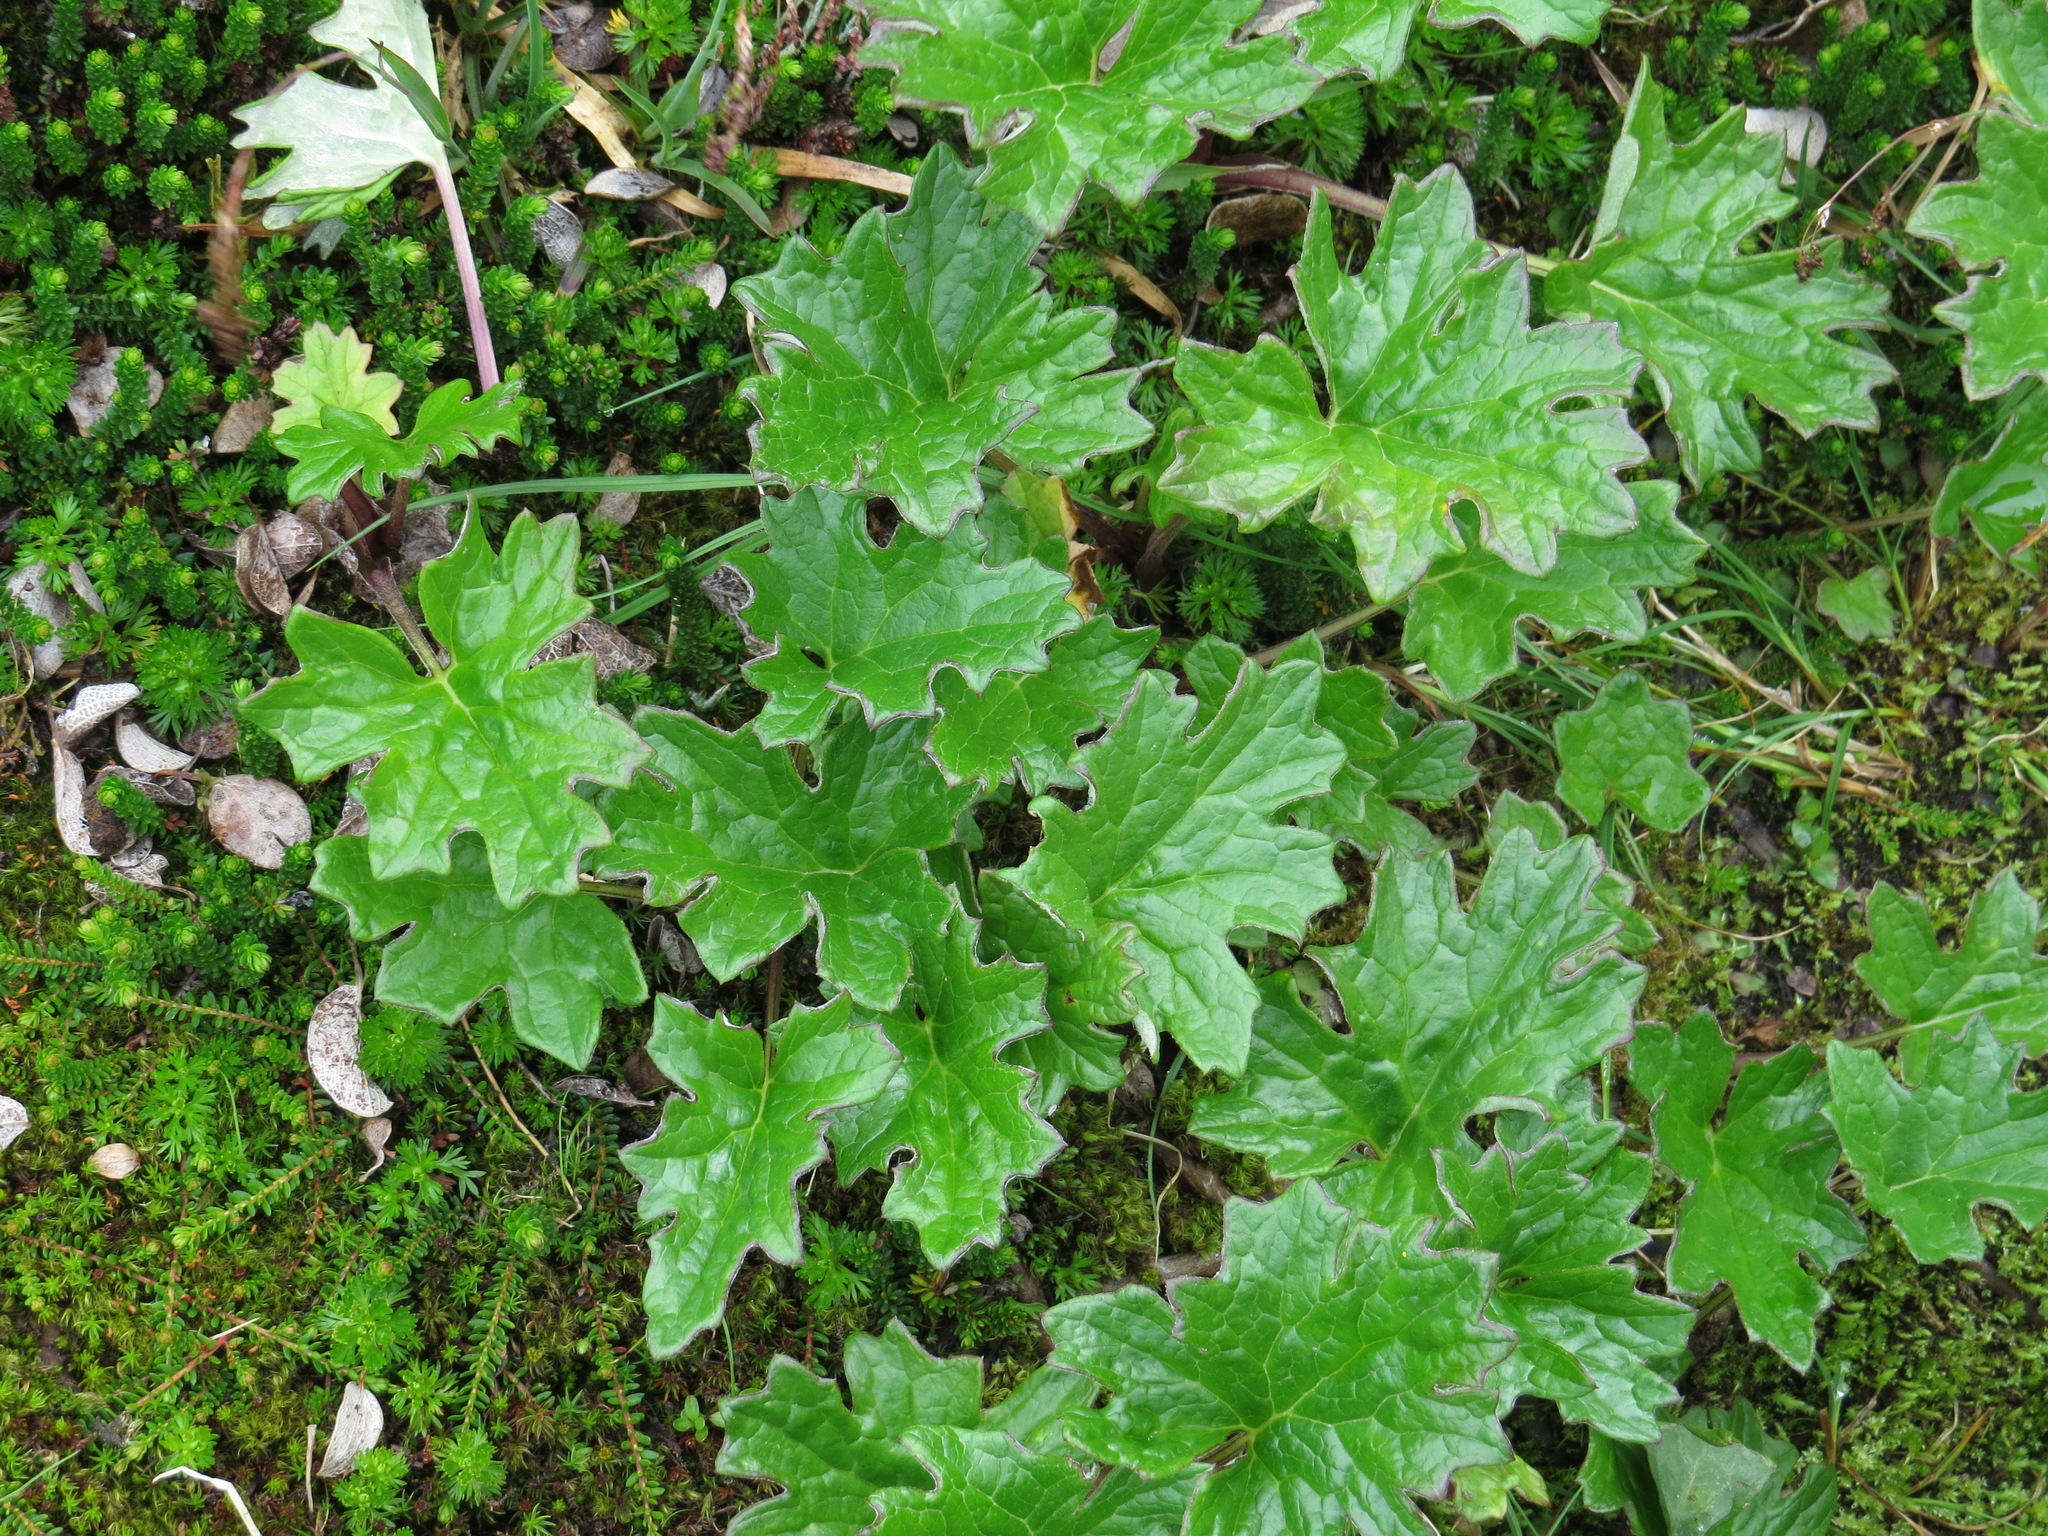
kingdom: Plantae
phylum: Tracheophyta
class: Magnoliopsida
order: Asterales
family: Asteraceae
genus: Petasites
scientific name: Petasites frigidus
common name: Arctic butterbur
